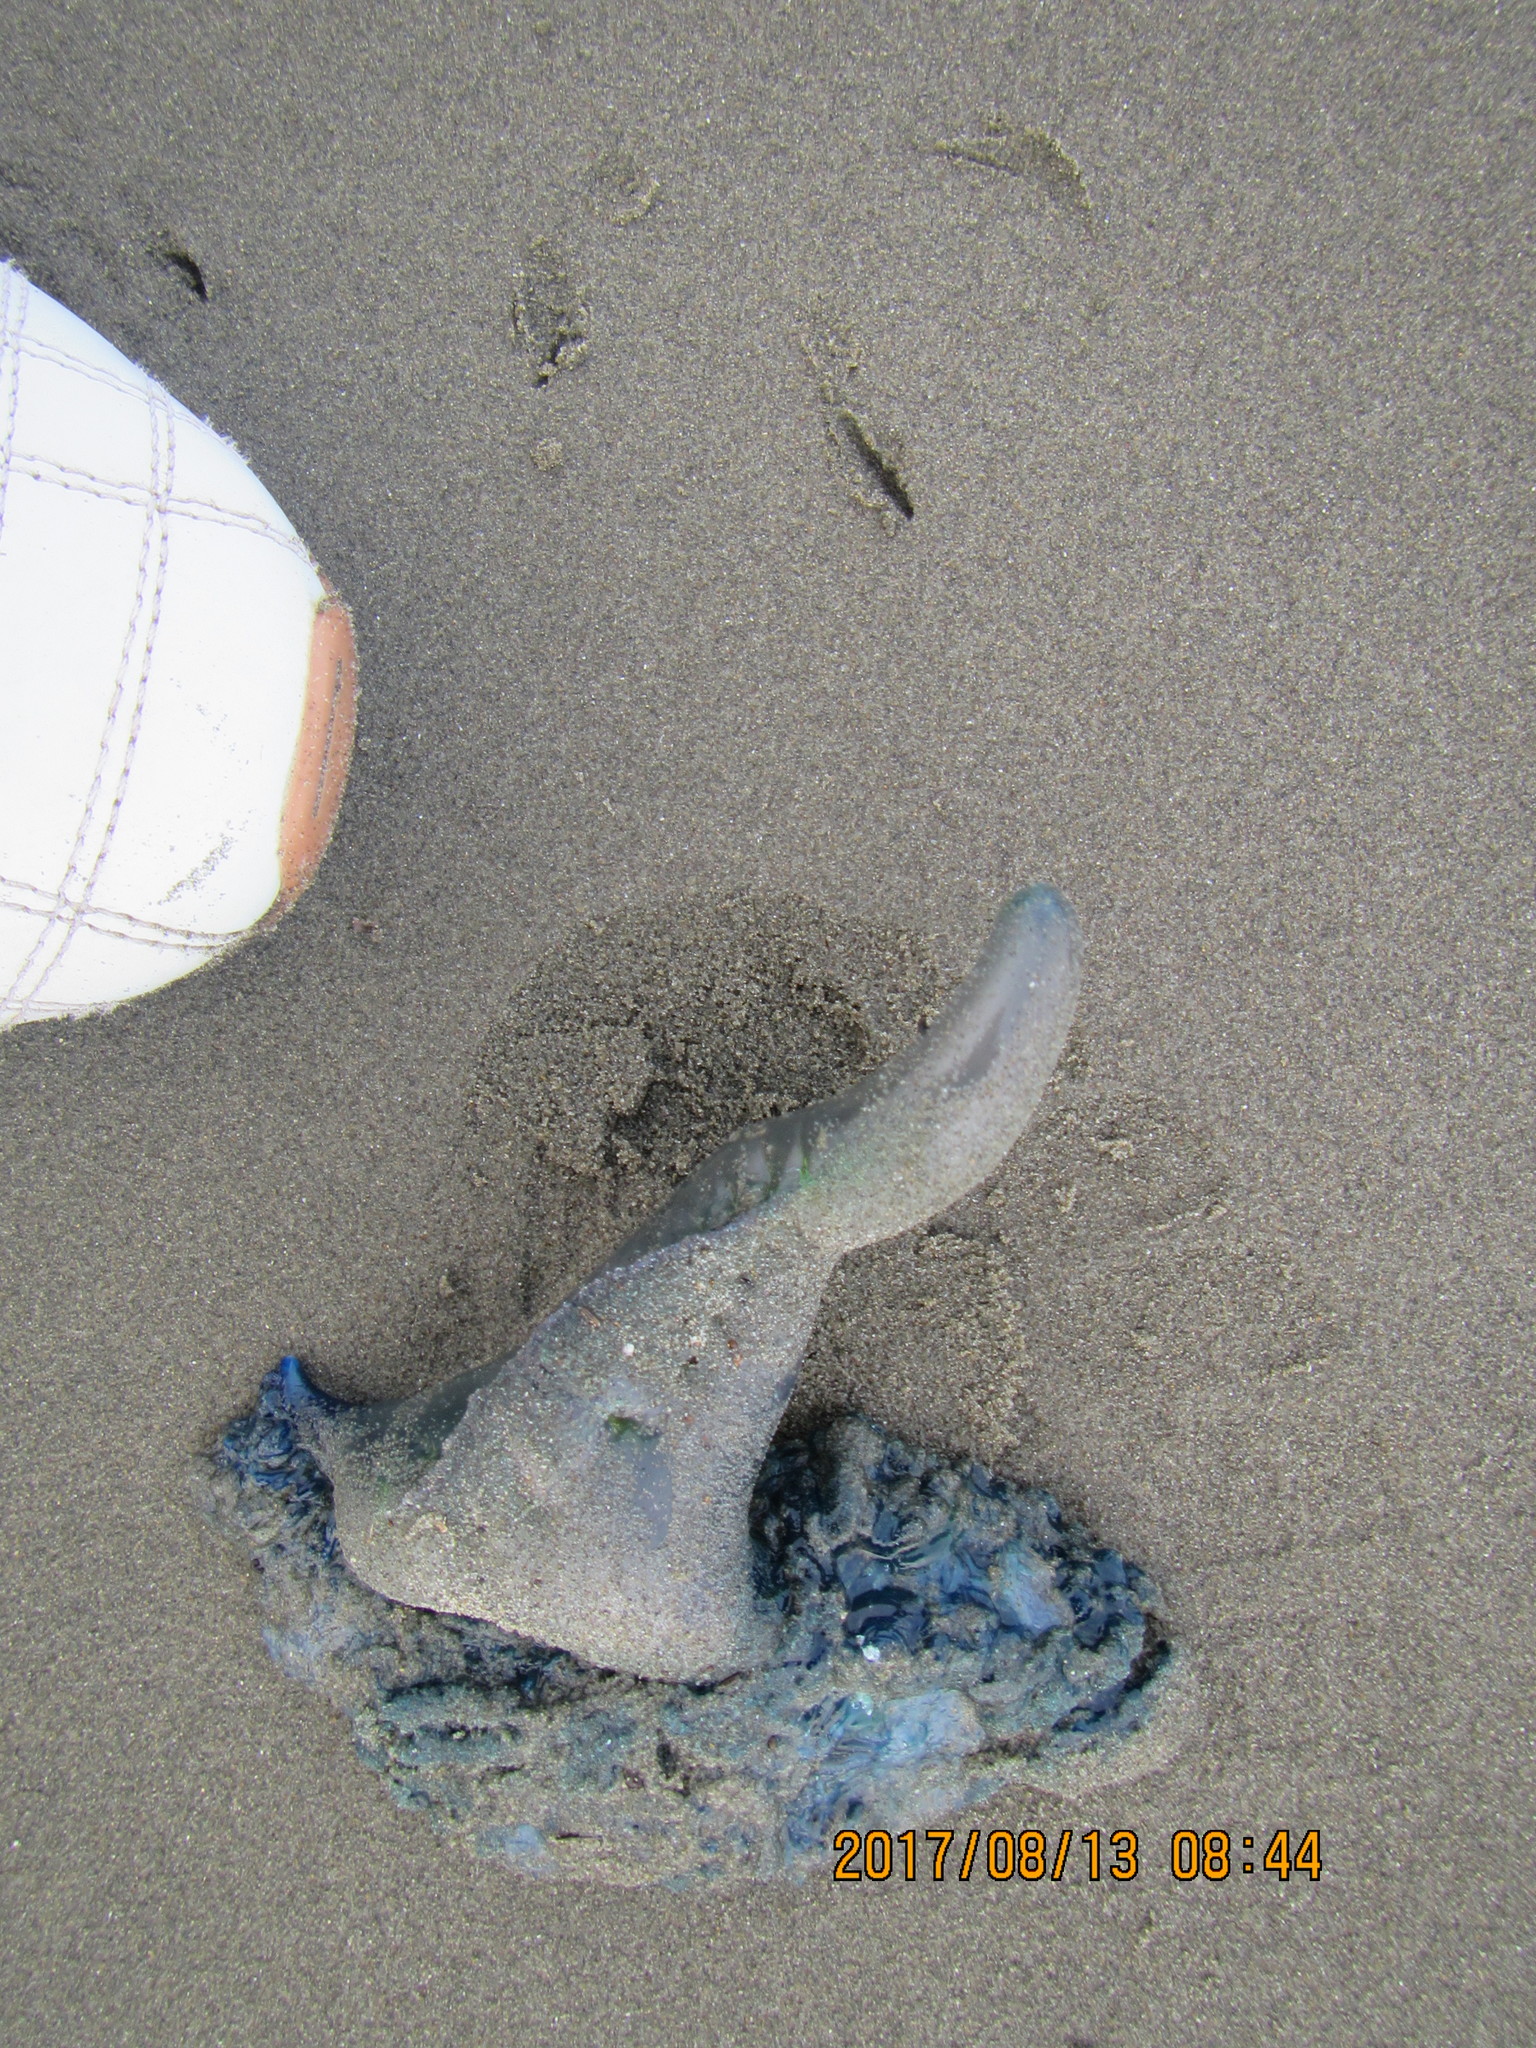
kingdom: Animalia
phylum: Cnidaria
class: Hydrozoa
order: Siphonophorae
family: Physaliidae
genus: Physalia
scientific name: Physalia physalis
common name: Portuguese man-of-war
